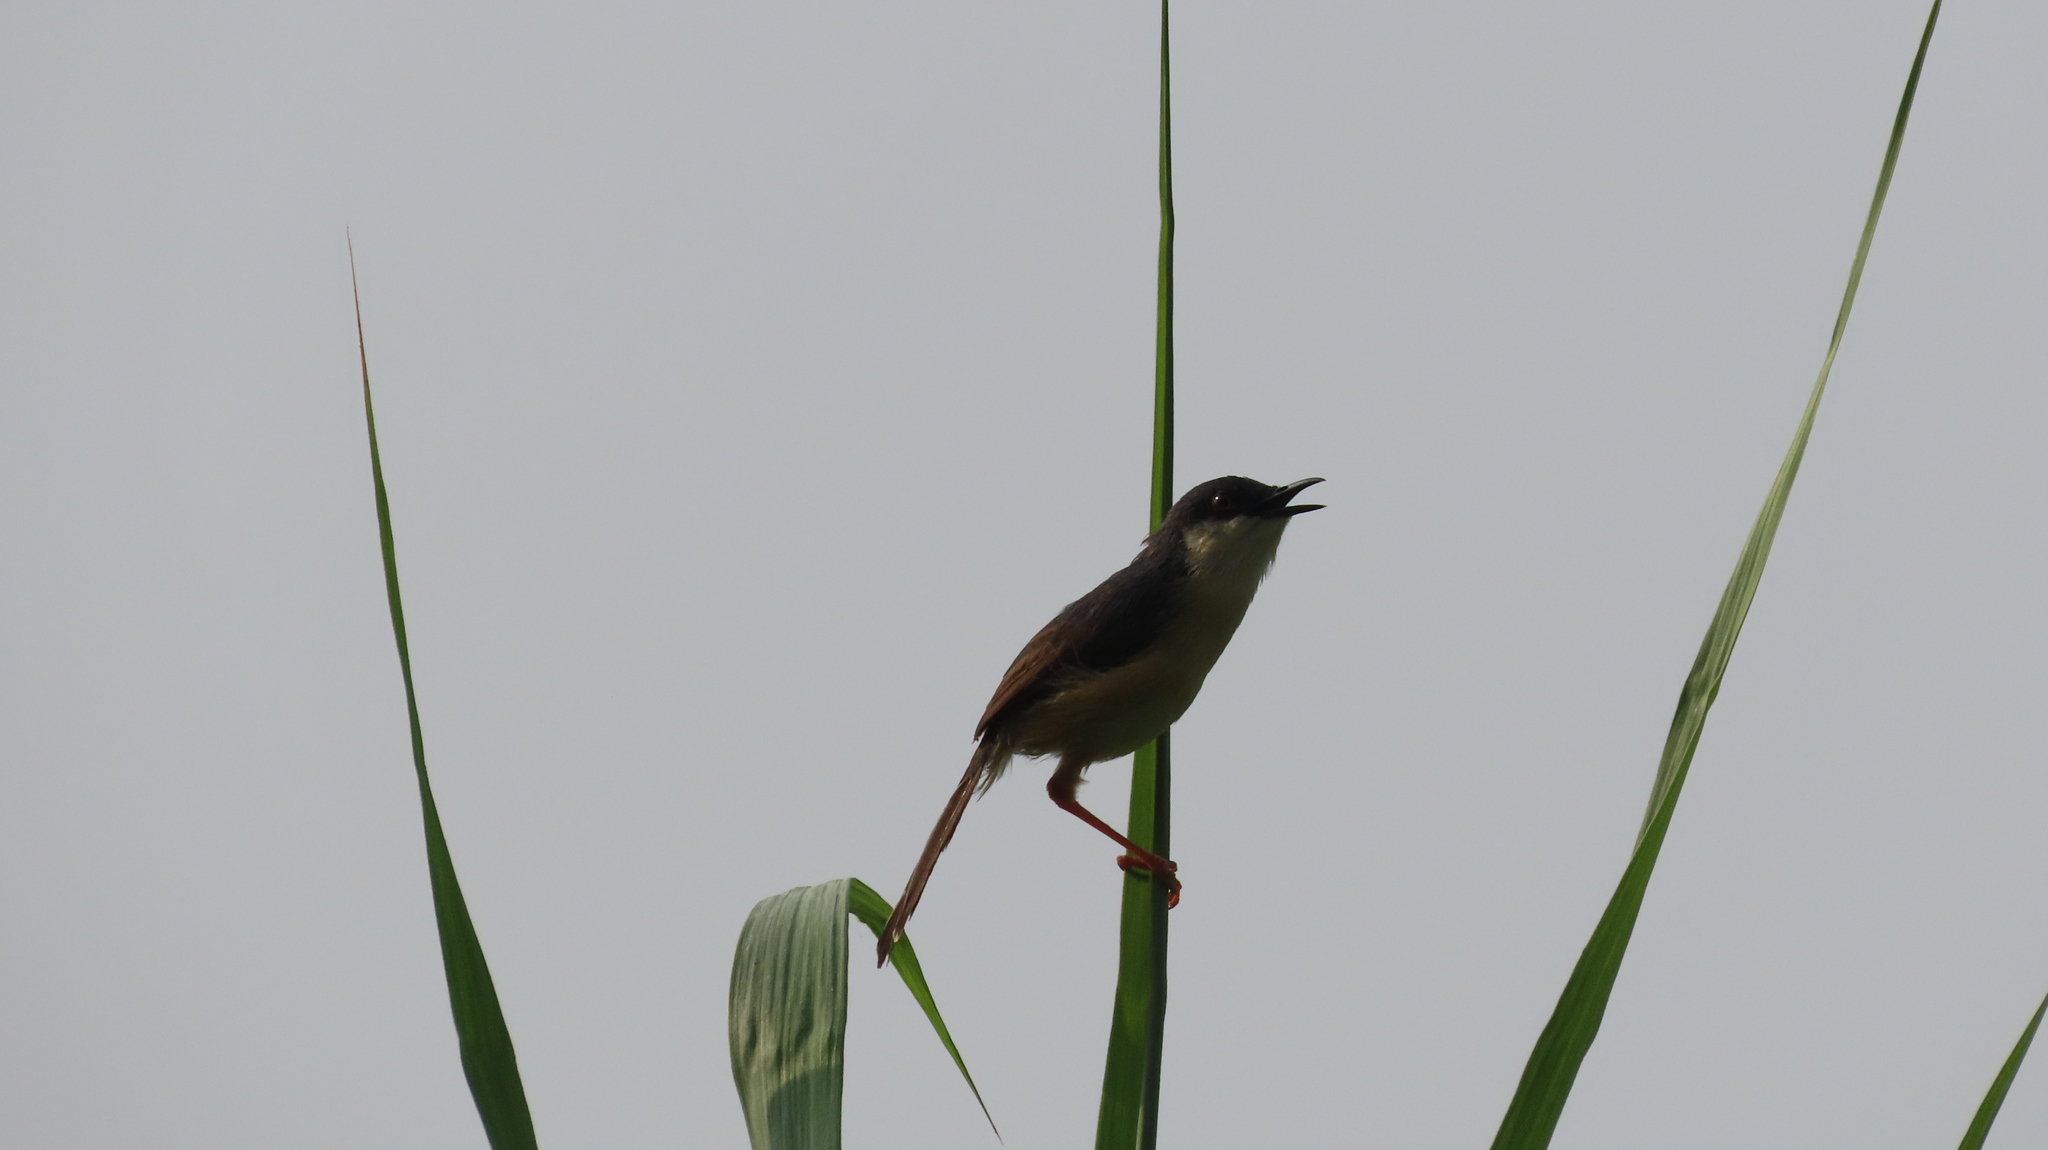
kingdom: Animalia
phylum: Chordata
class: Aves
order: Passeriformes
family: Cisticolidae
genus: Prinia
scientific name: Prinia socialis
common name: Ashy prinia
